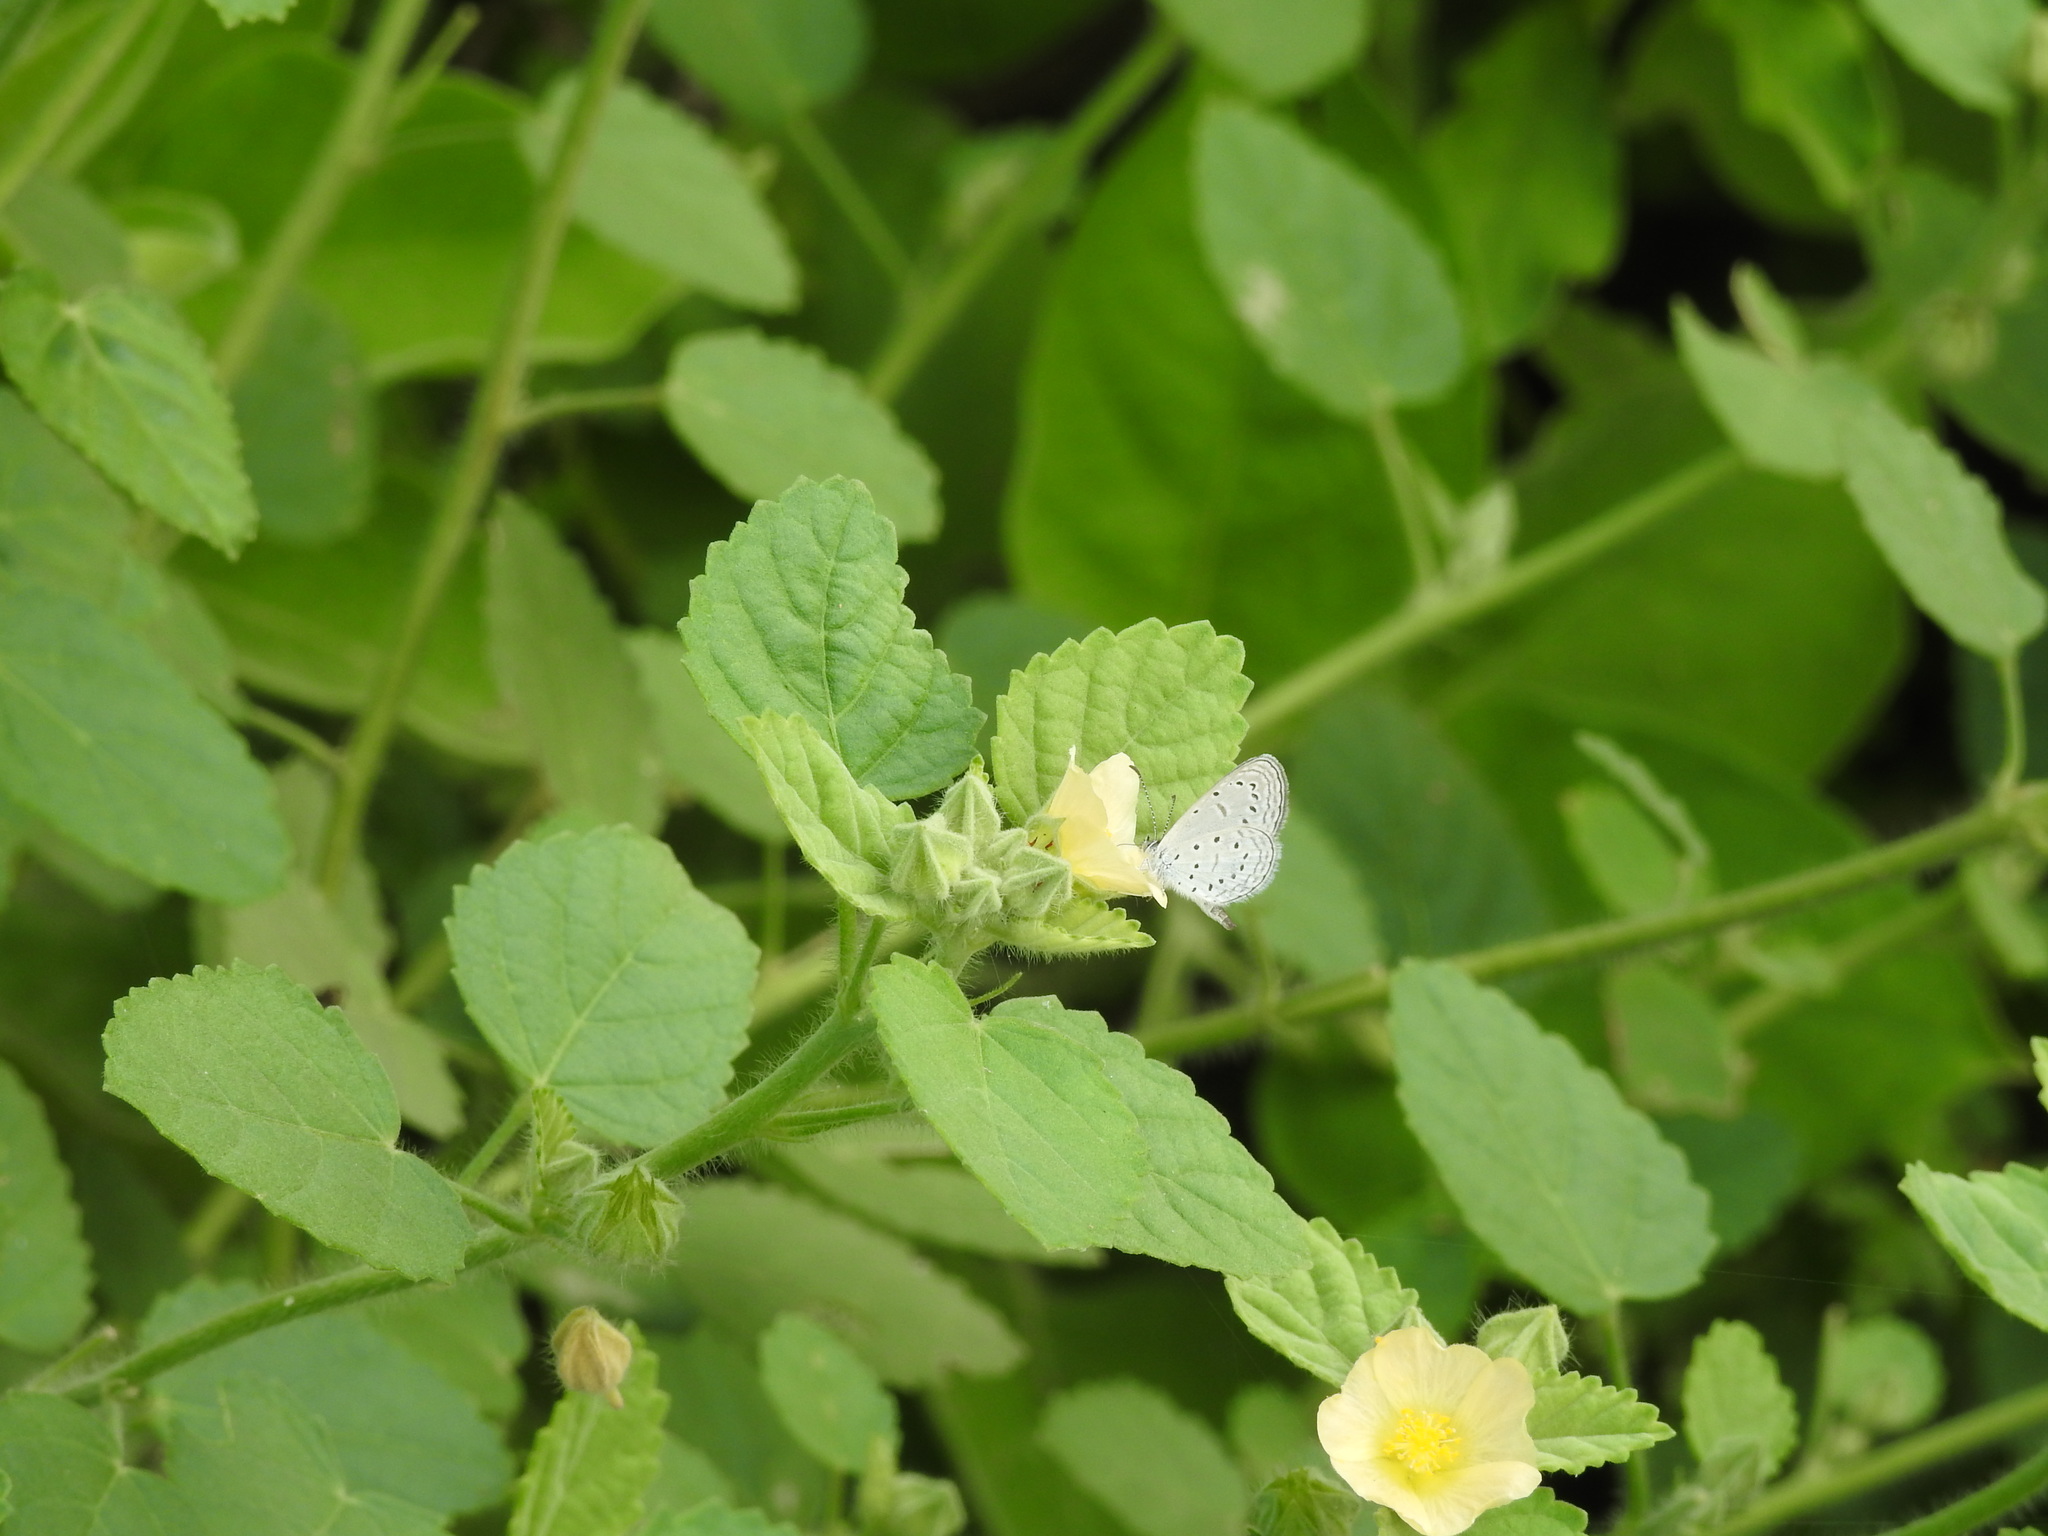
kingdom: Animalia
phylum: Arthropoda
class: Insecta
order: Lepidoptera
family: Lycaenidae
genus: Zizula
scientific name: Zizula hylax
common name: Gaika blue
